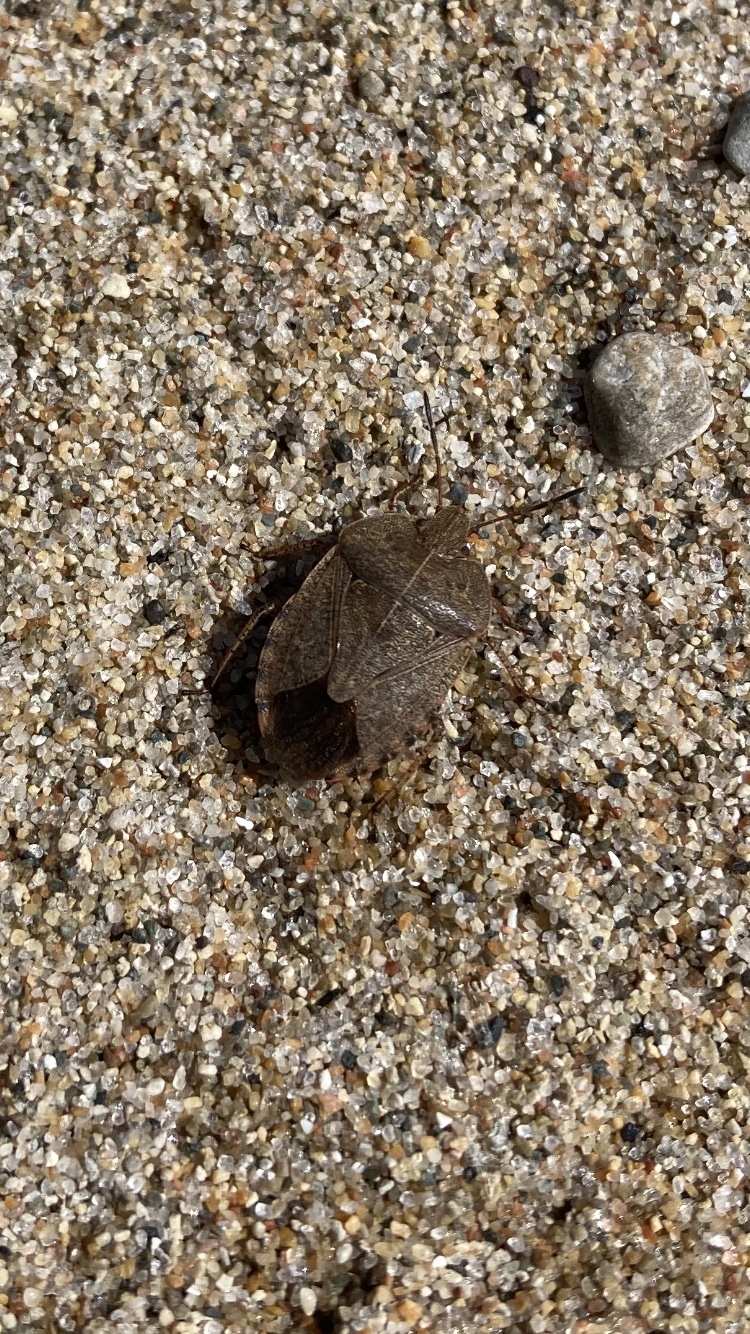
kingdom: Animalia
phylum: Arthropoda
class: Insecta
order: Hemiptera
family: Pentatomidae
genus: Menecles
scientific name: Menecles insertus
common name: Elf shoe stink bug
